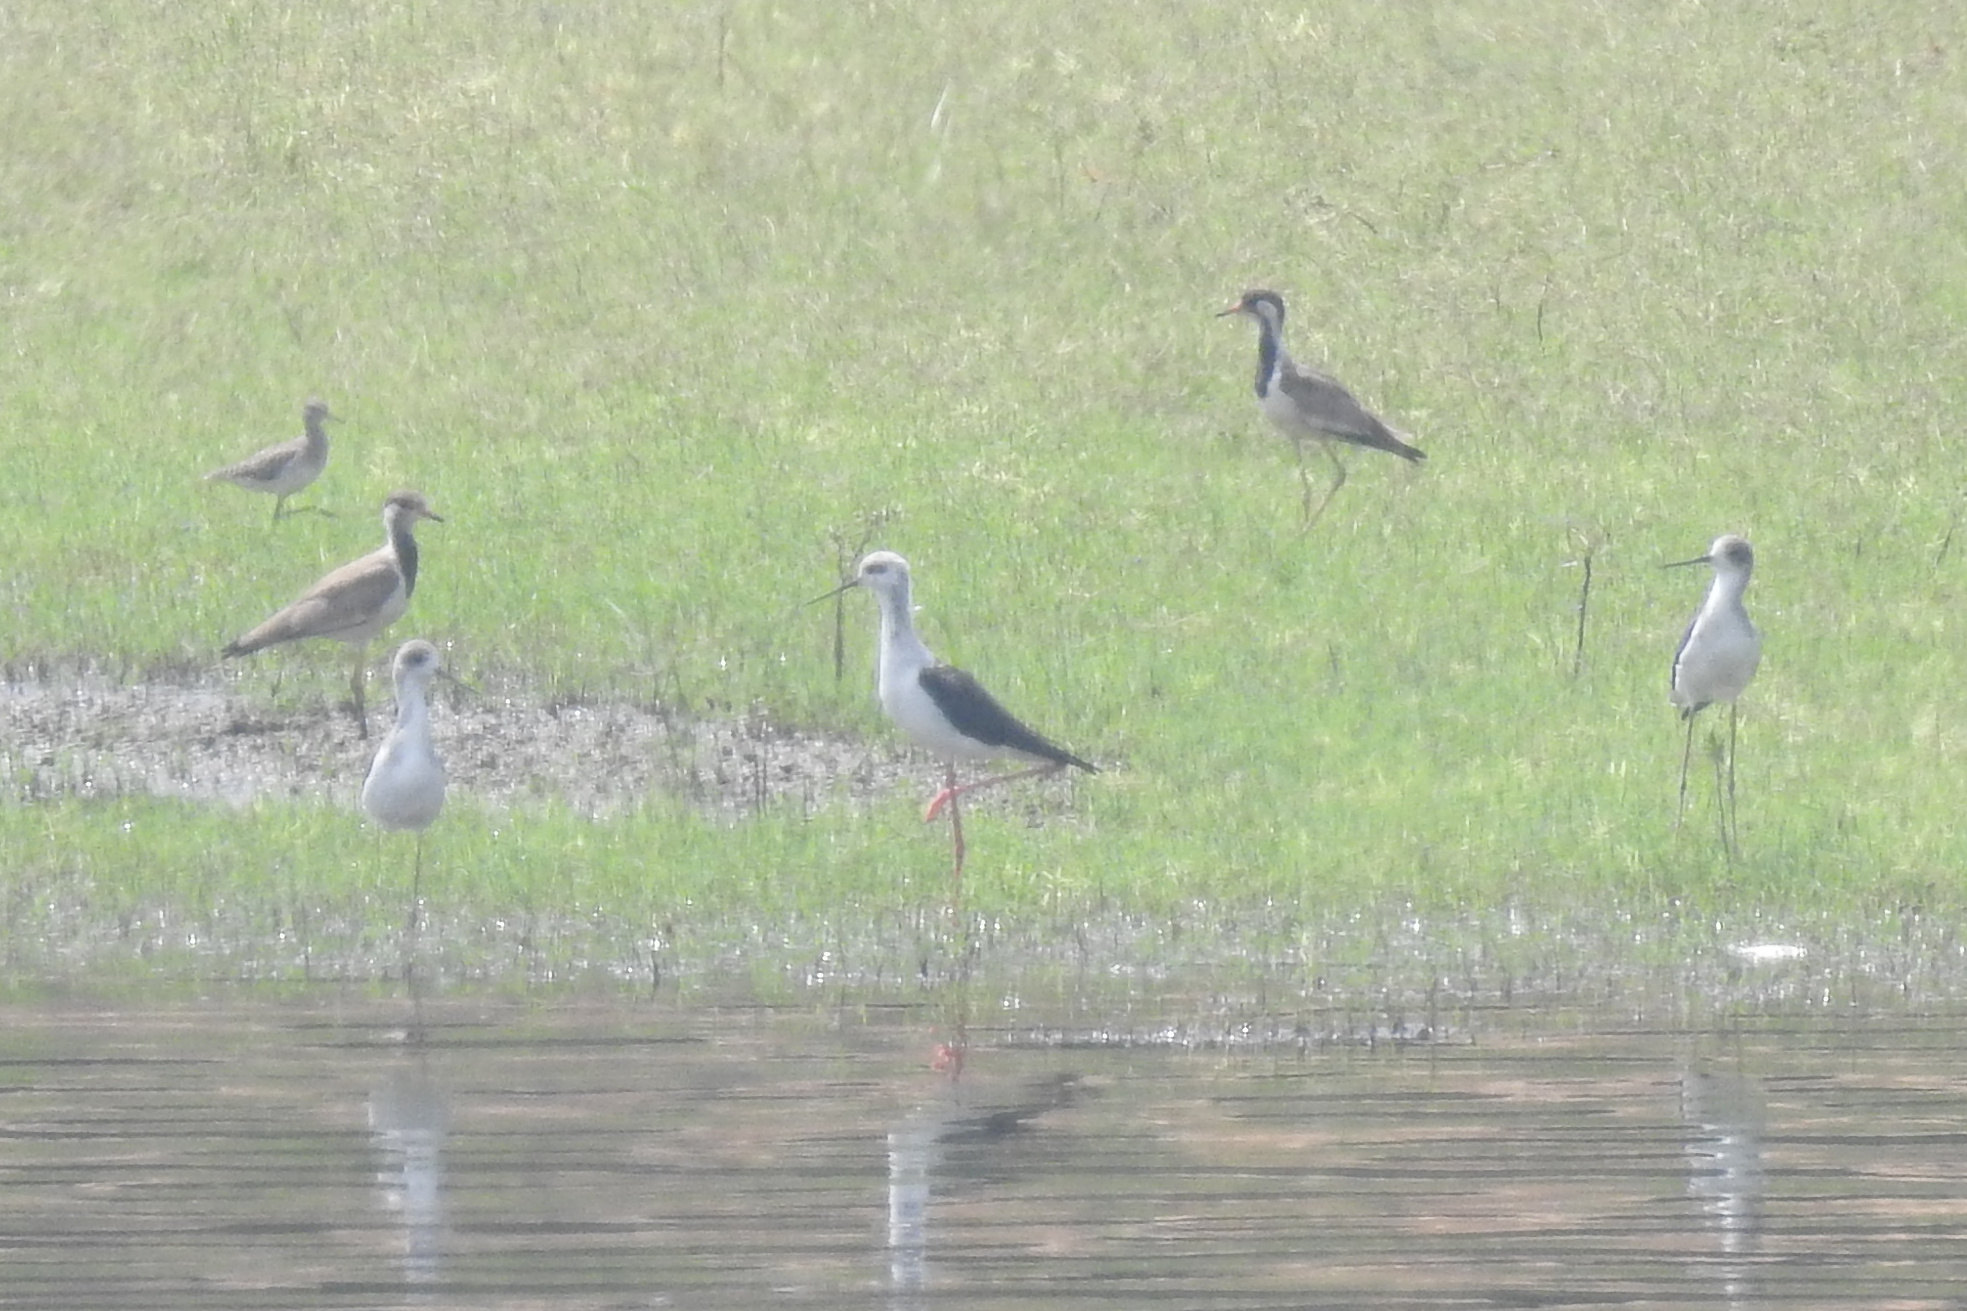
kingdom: Animalia
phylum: Chordata
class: Aves
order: Charadriiformes
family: Charadriidae
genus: Vanellus
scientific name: Vanellus indicus
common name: Red-wattled lapwing
